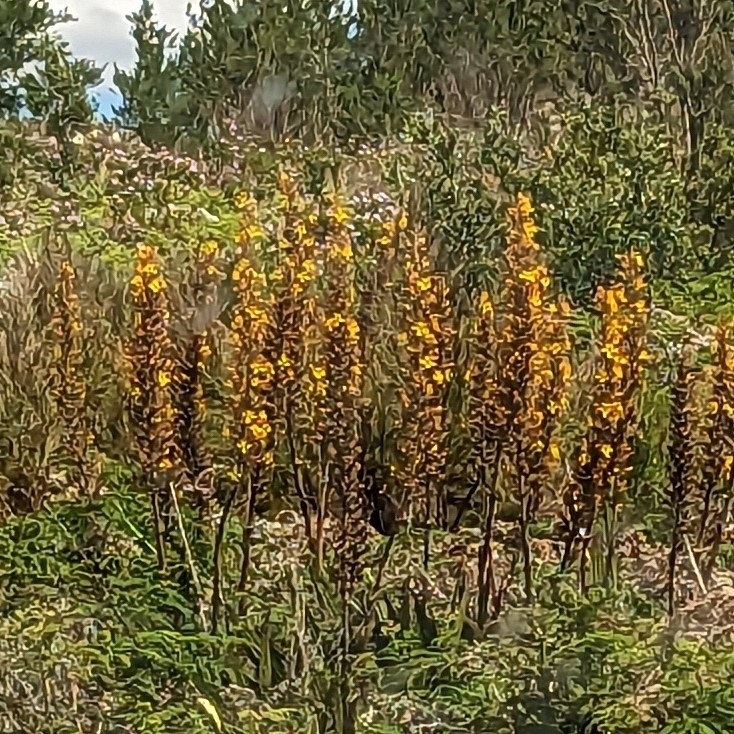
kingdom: Plantae
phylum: Tracheophyta
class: Liliopsida
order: Commelinales
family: Haemodoraceae
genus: Wachendorfia
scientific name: Wachendorfia thyrsiflora
